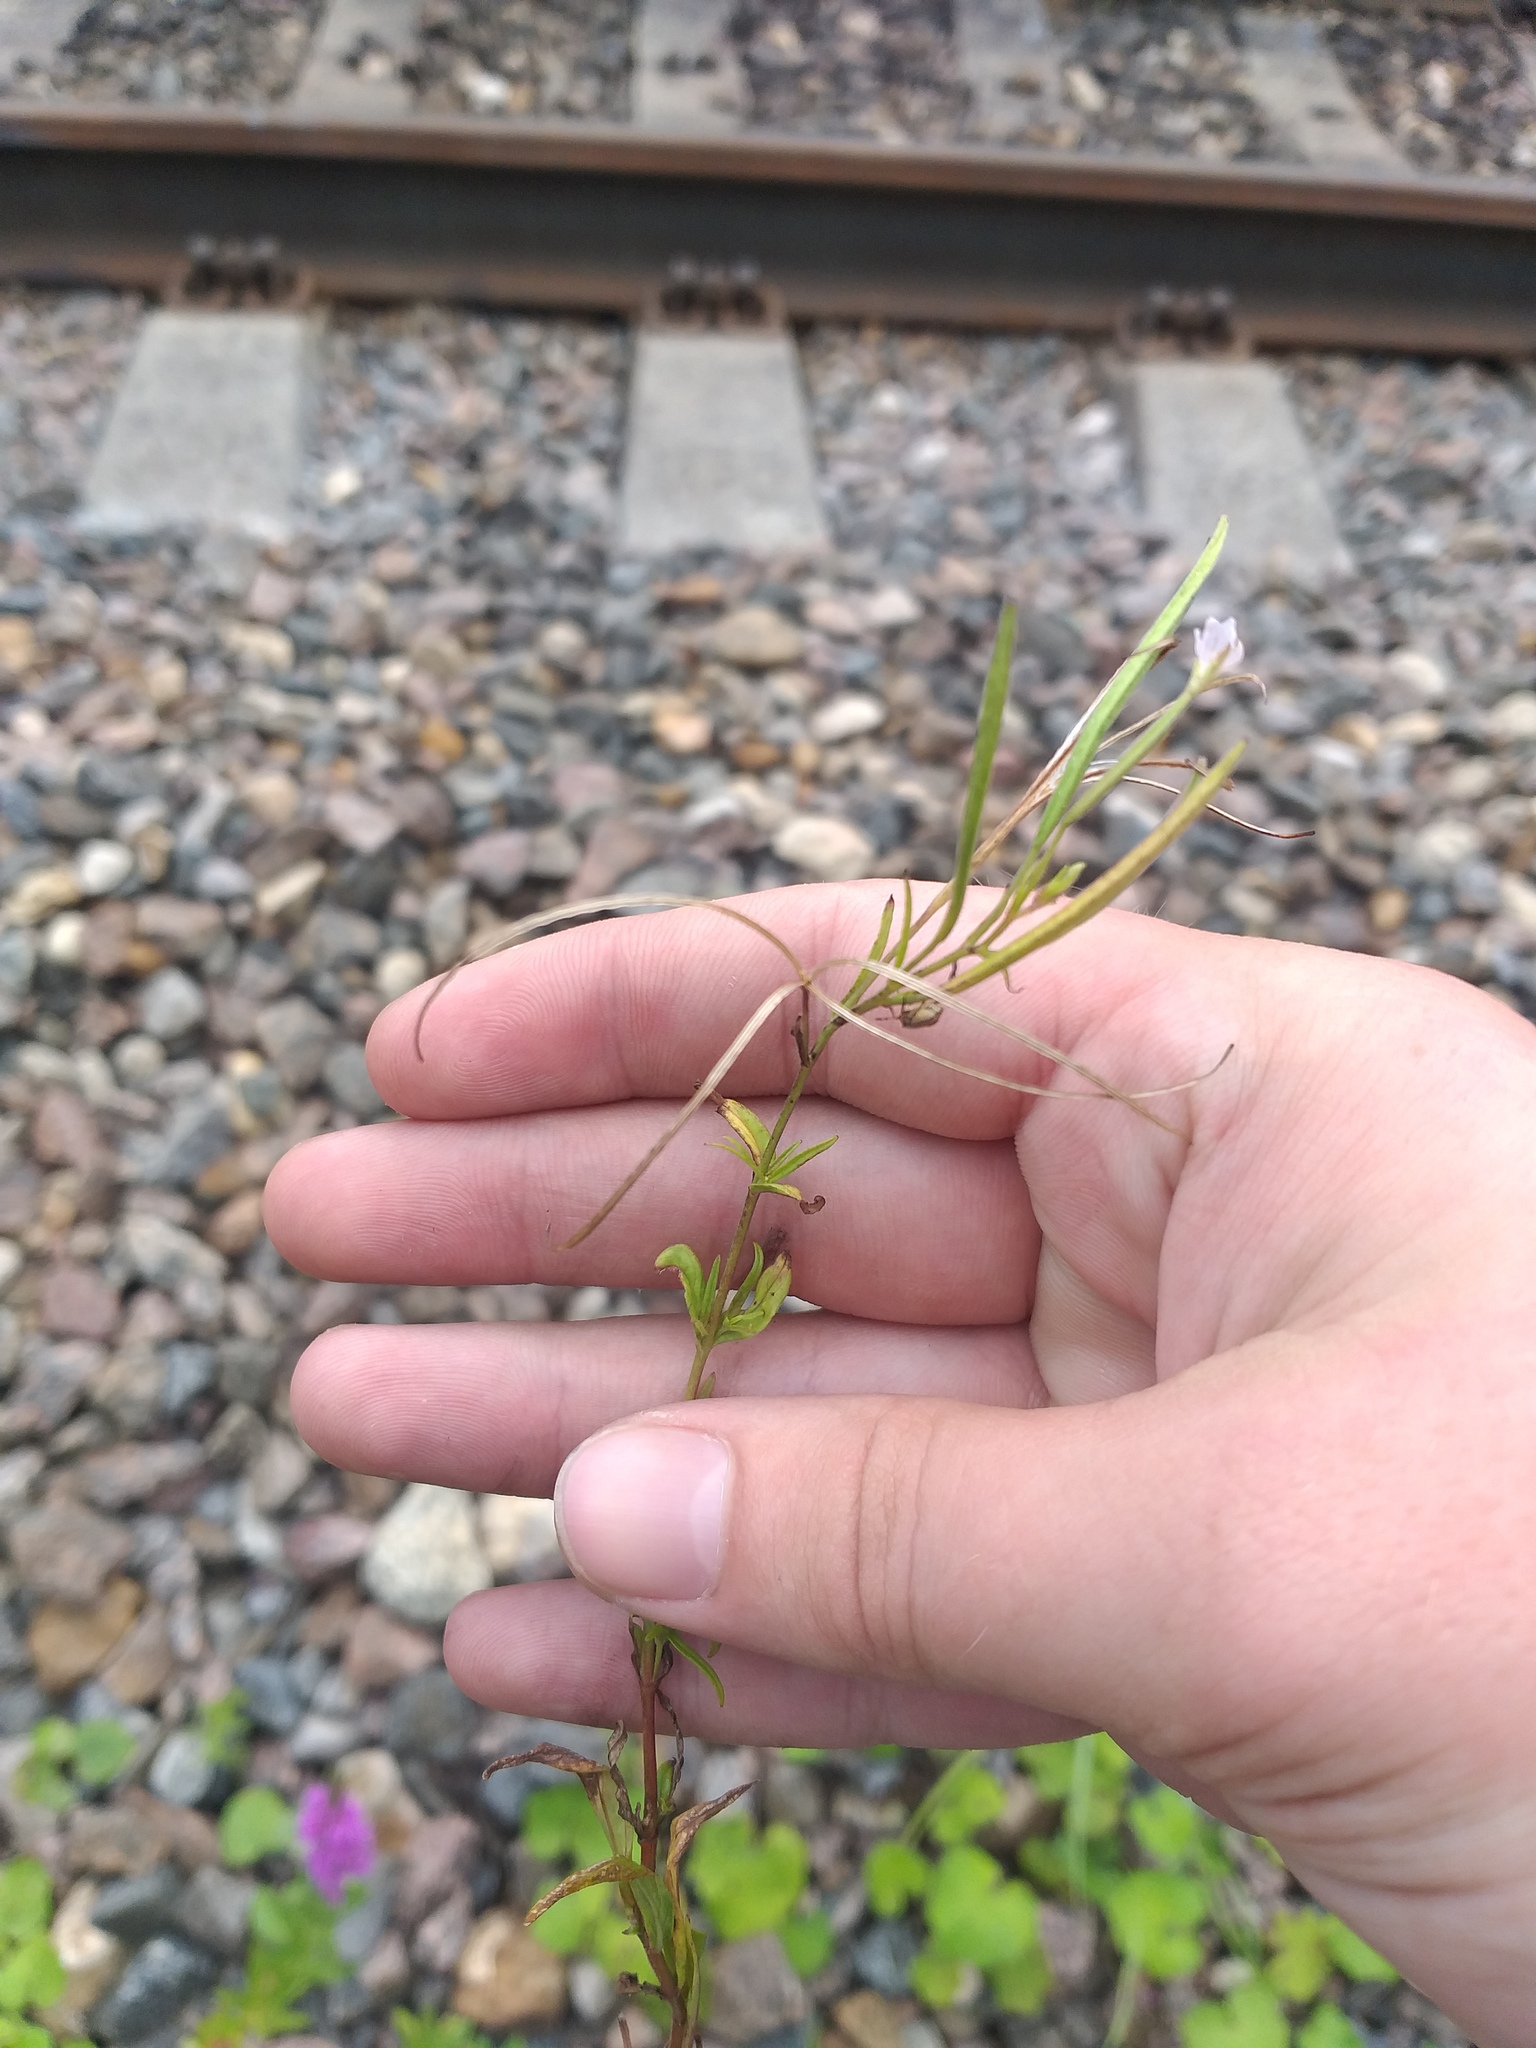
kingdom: Plantae
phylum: Tracheophyta
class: Magnoliopsida
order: Myrtales
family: Onagraceae
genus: Epilobium
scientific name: Epilobium palustre
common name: Marsh willowherb
